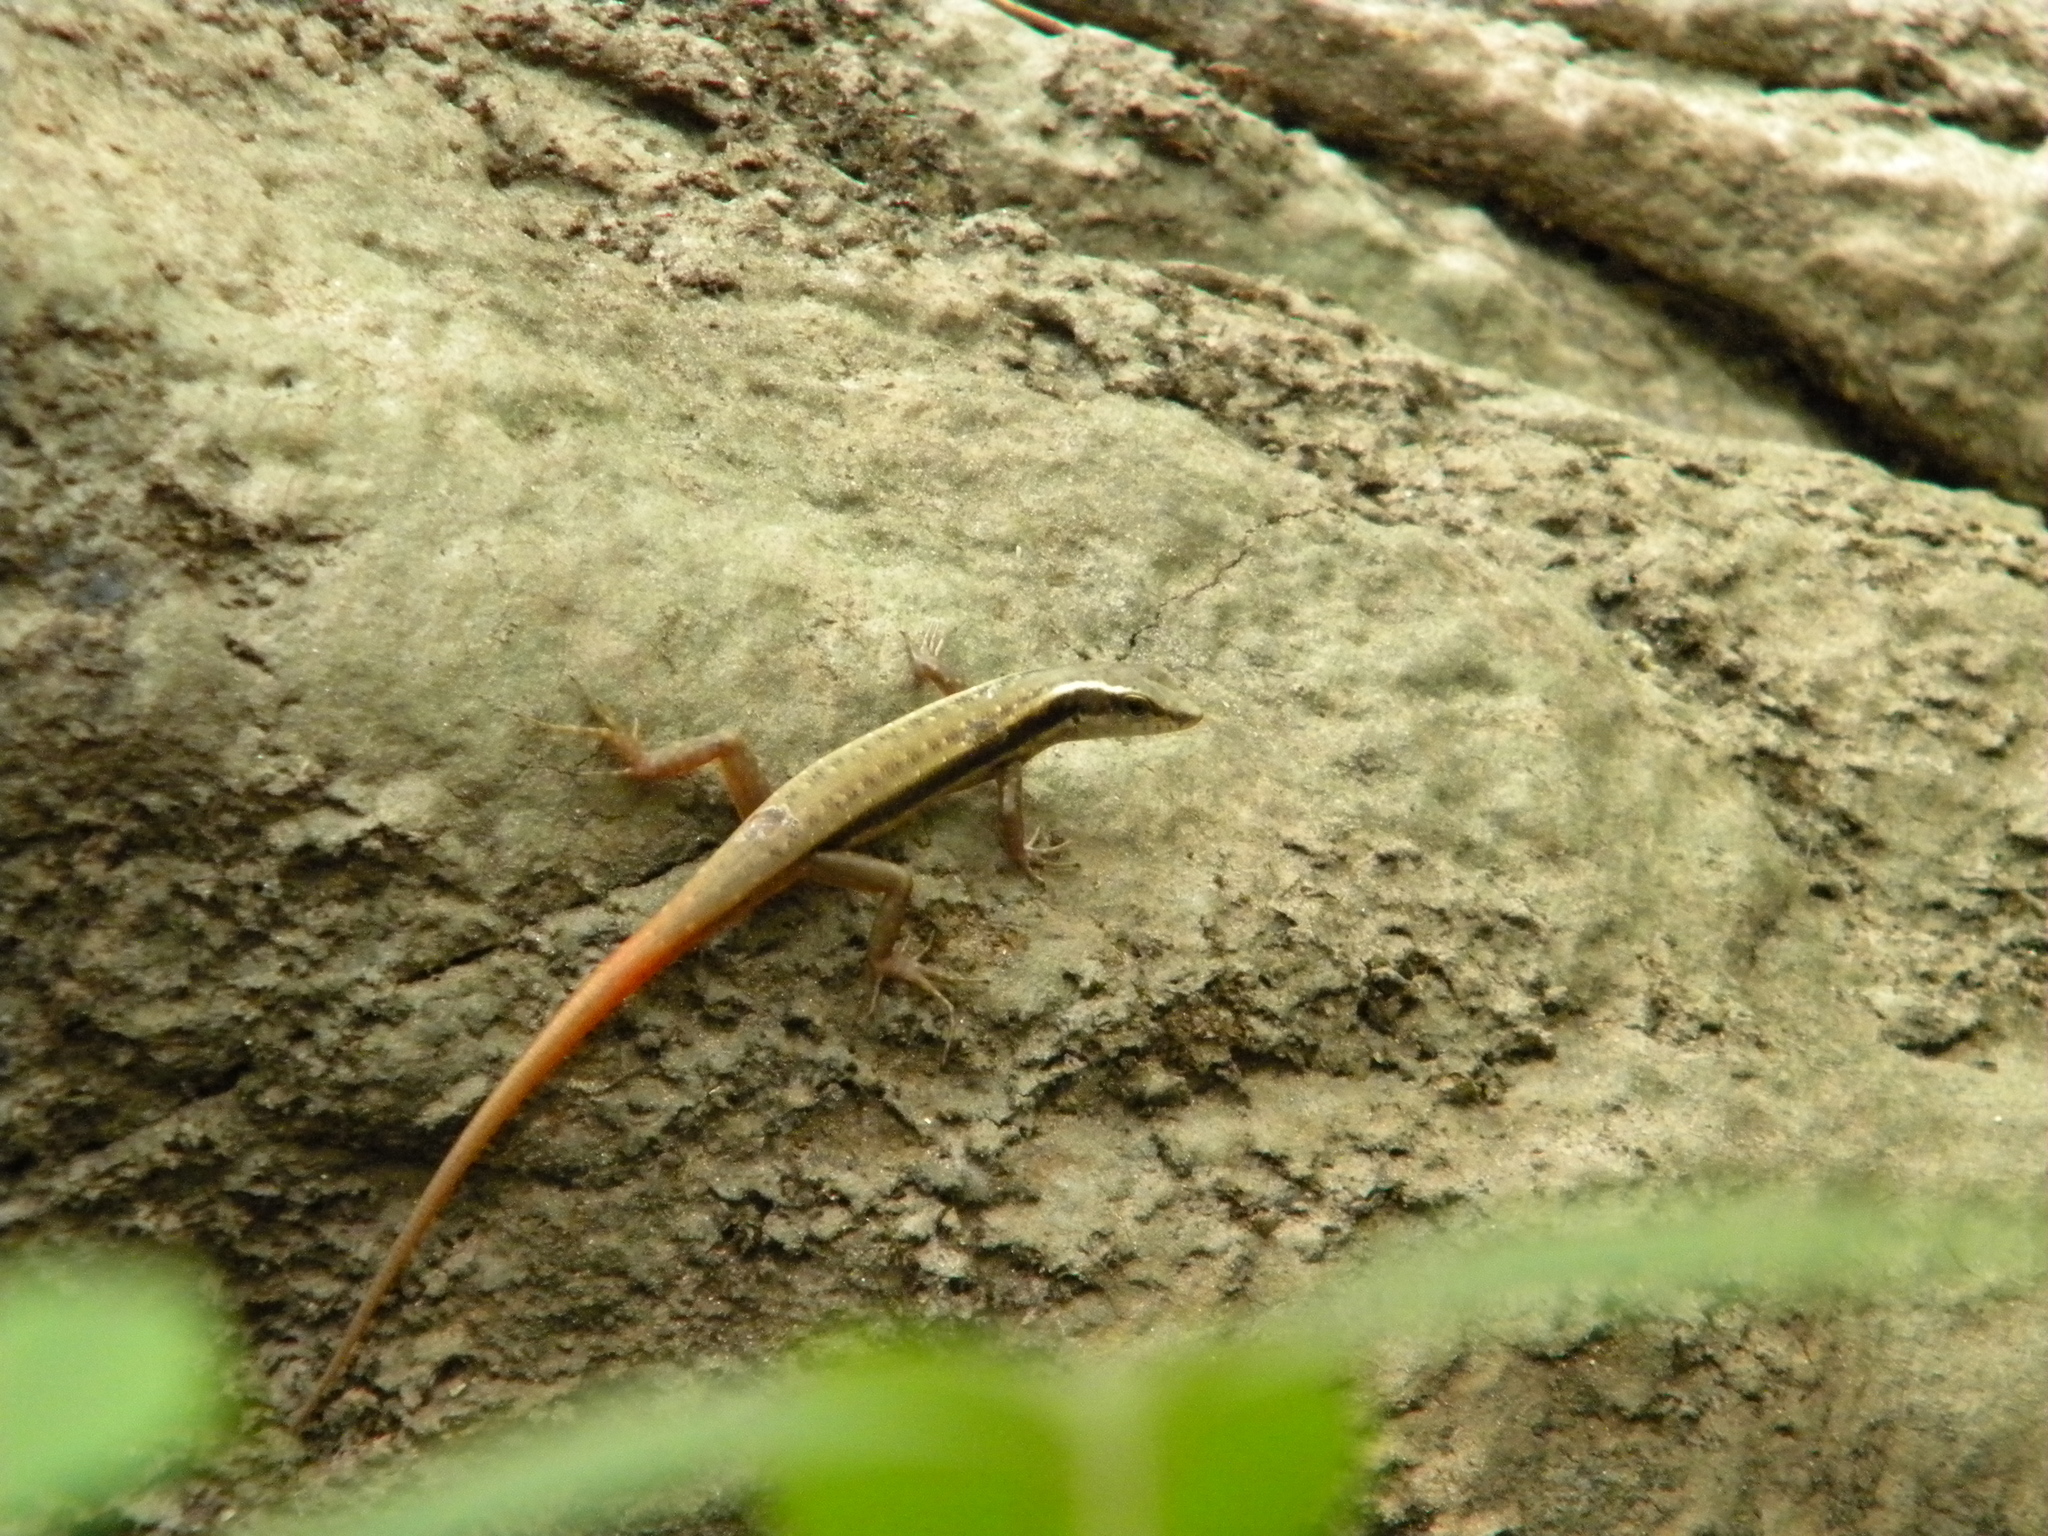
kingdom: Animalia
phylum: Chordata
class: Squamata
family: Scincidae
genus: Sphenomorphus
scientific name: Sphenomorphus dussumieri
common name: Dussumier's forest skink
